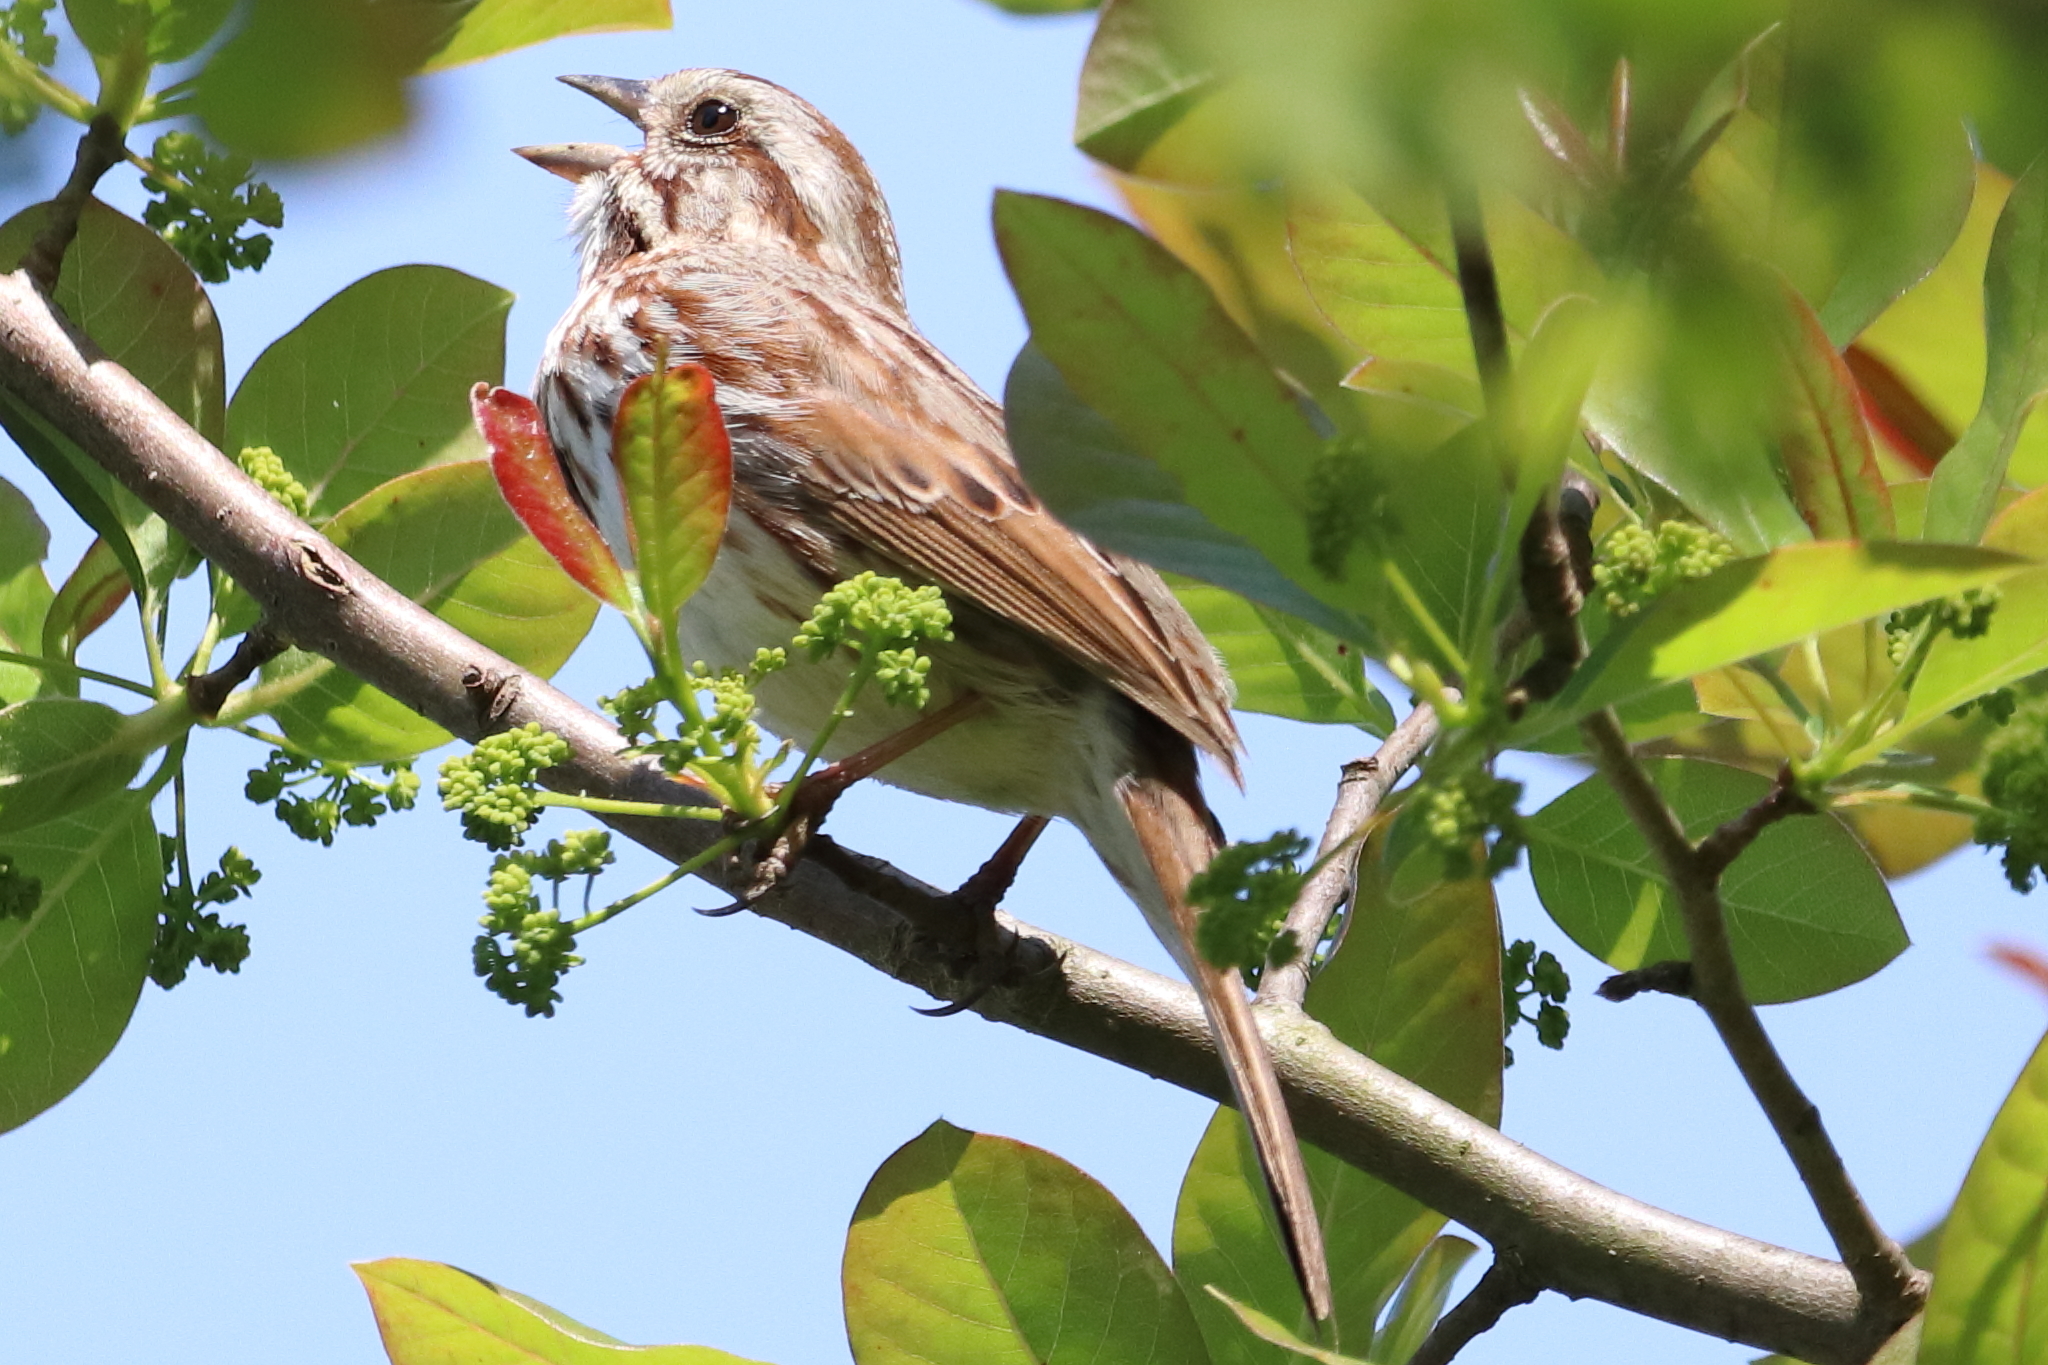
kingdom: Animalia
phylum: Chordata
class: Aves
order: Passeriformes
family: Passerellidae
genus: Melospiza
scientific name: Melospiza melodia
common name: Song sparrow
